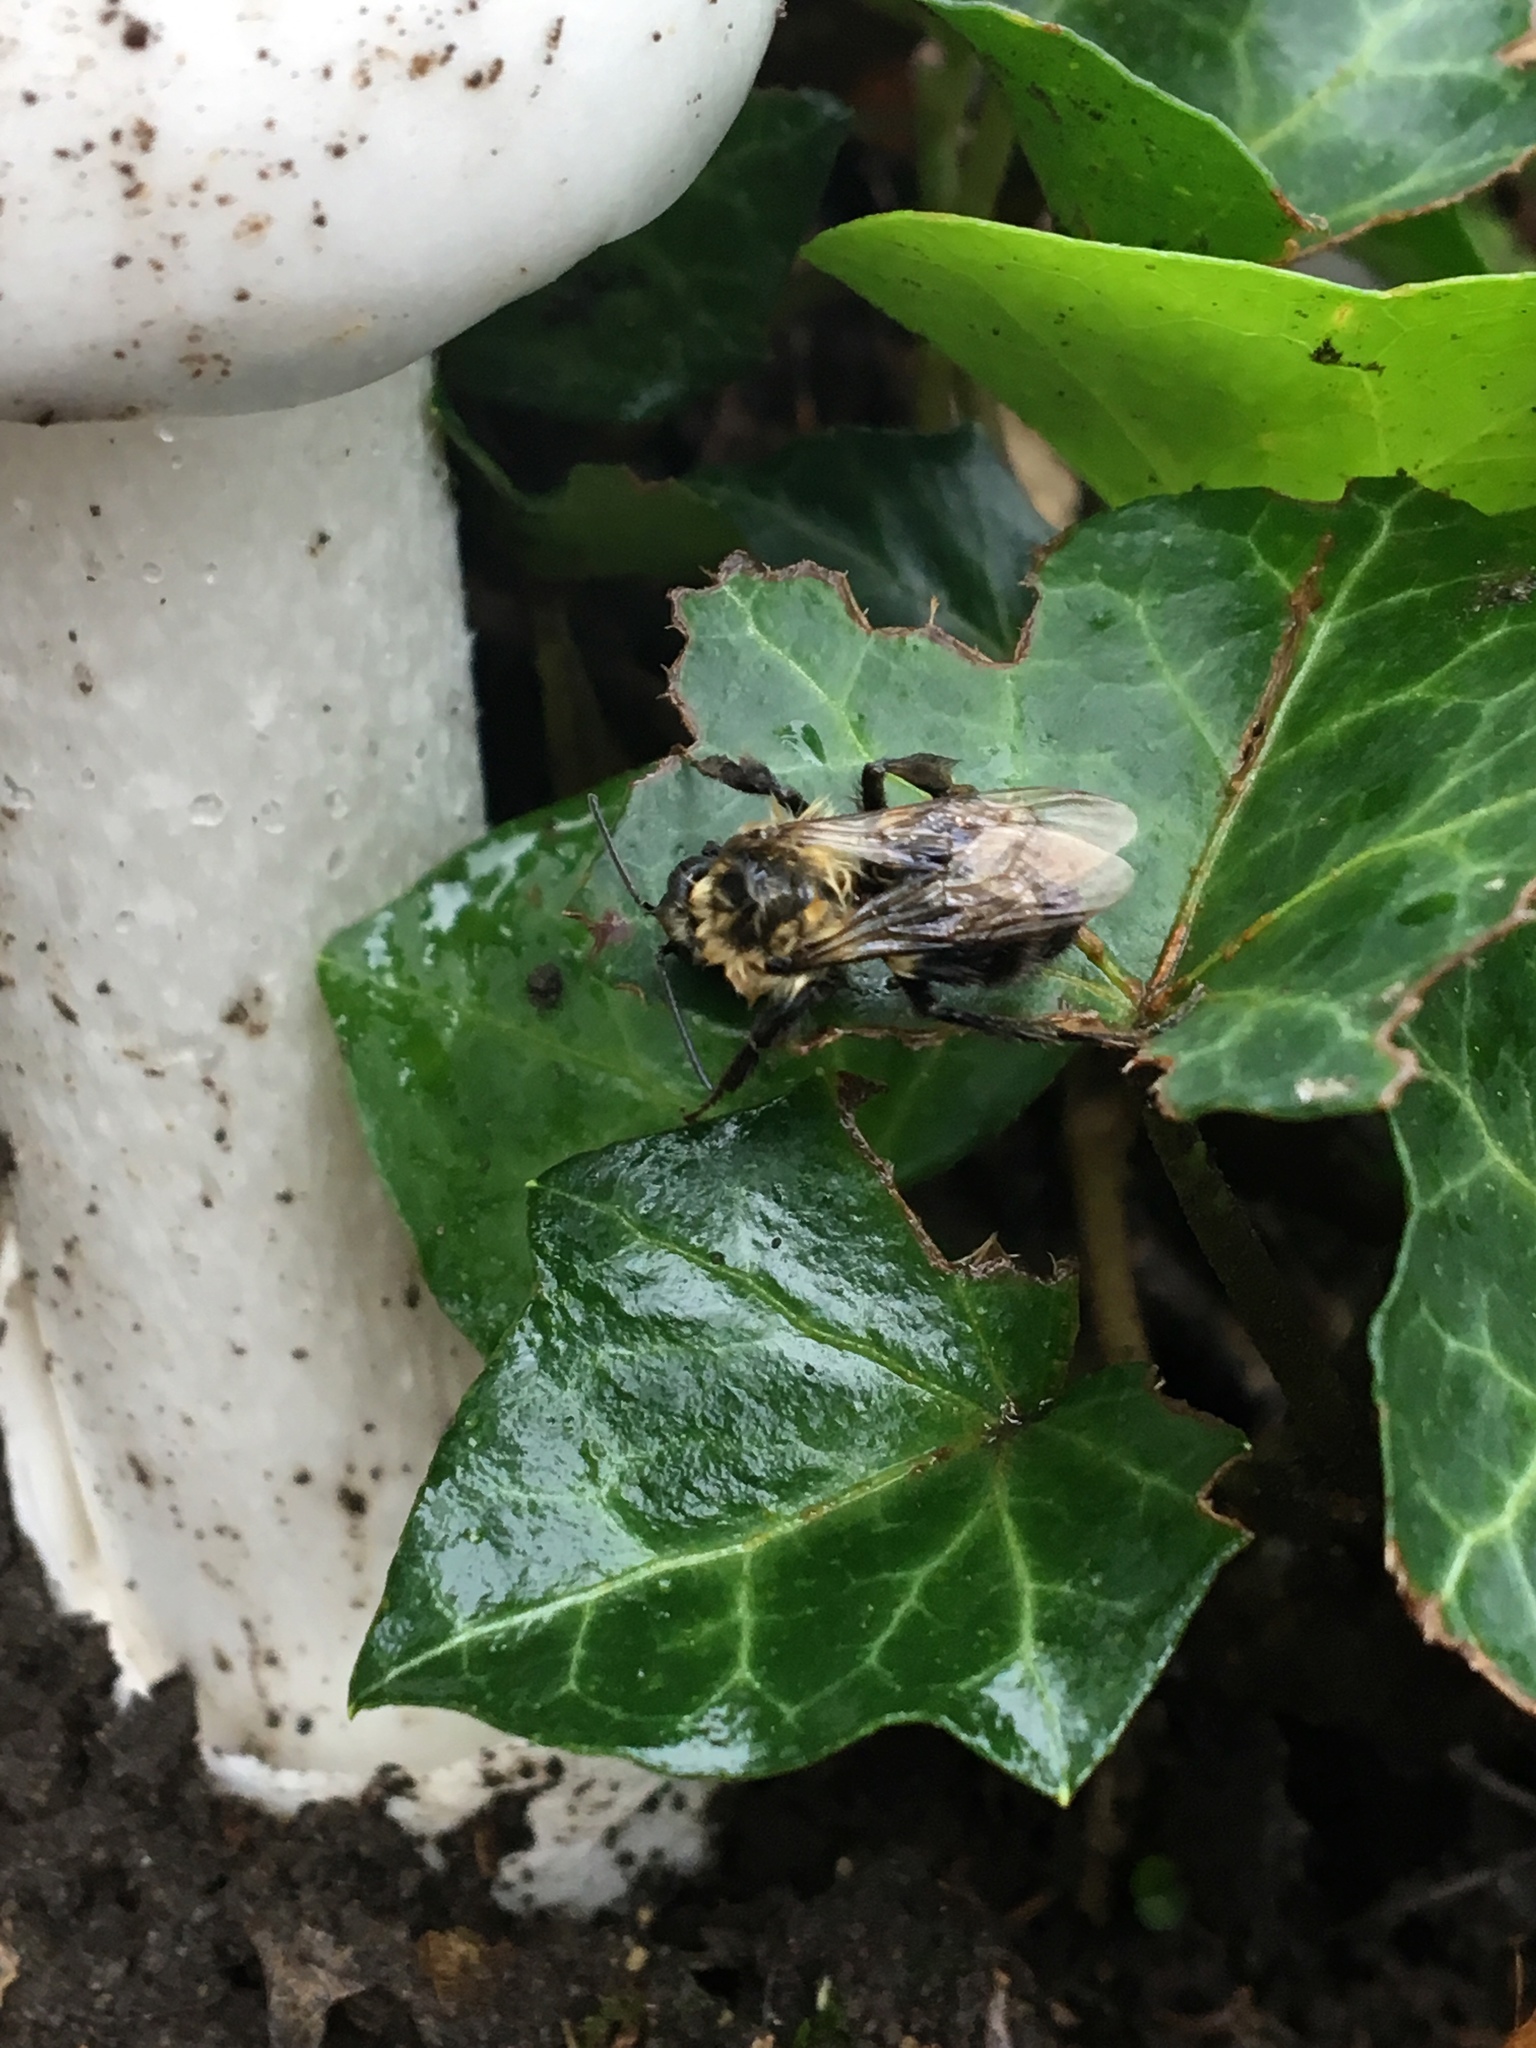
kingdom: Animalia
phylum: Arthropoda
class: Insecta
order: Hymenoptera
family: Apidae
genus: Bombus
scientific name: Bombus impatiens
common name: Common eastern bumble bee
